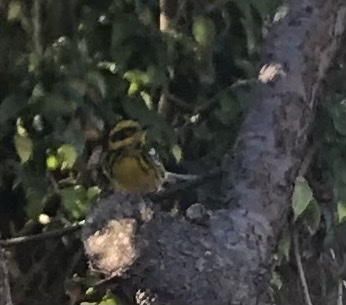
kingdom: Animalia
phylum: Chordata
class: Aves
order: Passeriformes
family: Parulidae
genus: Setophaga
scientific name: Setophaga townsendi
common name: Townsend's warbler
